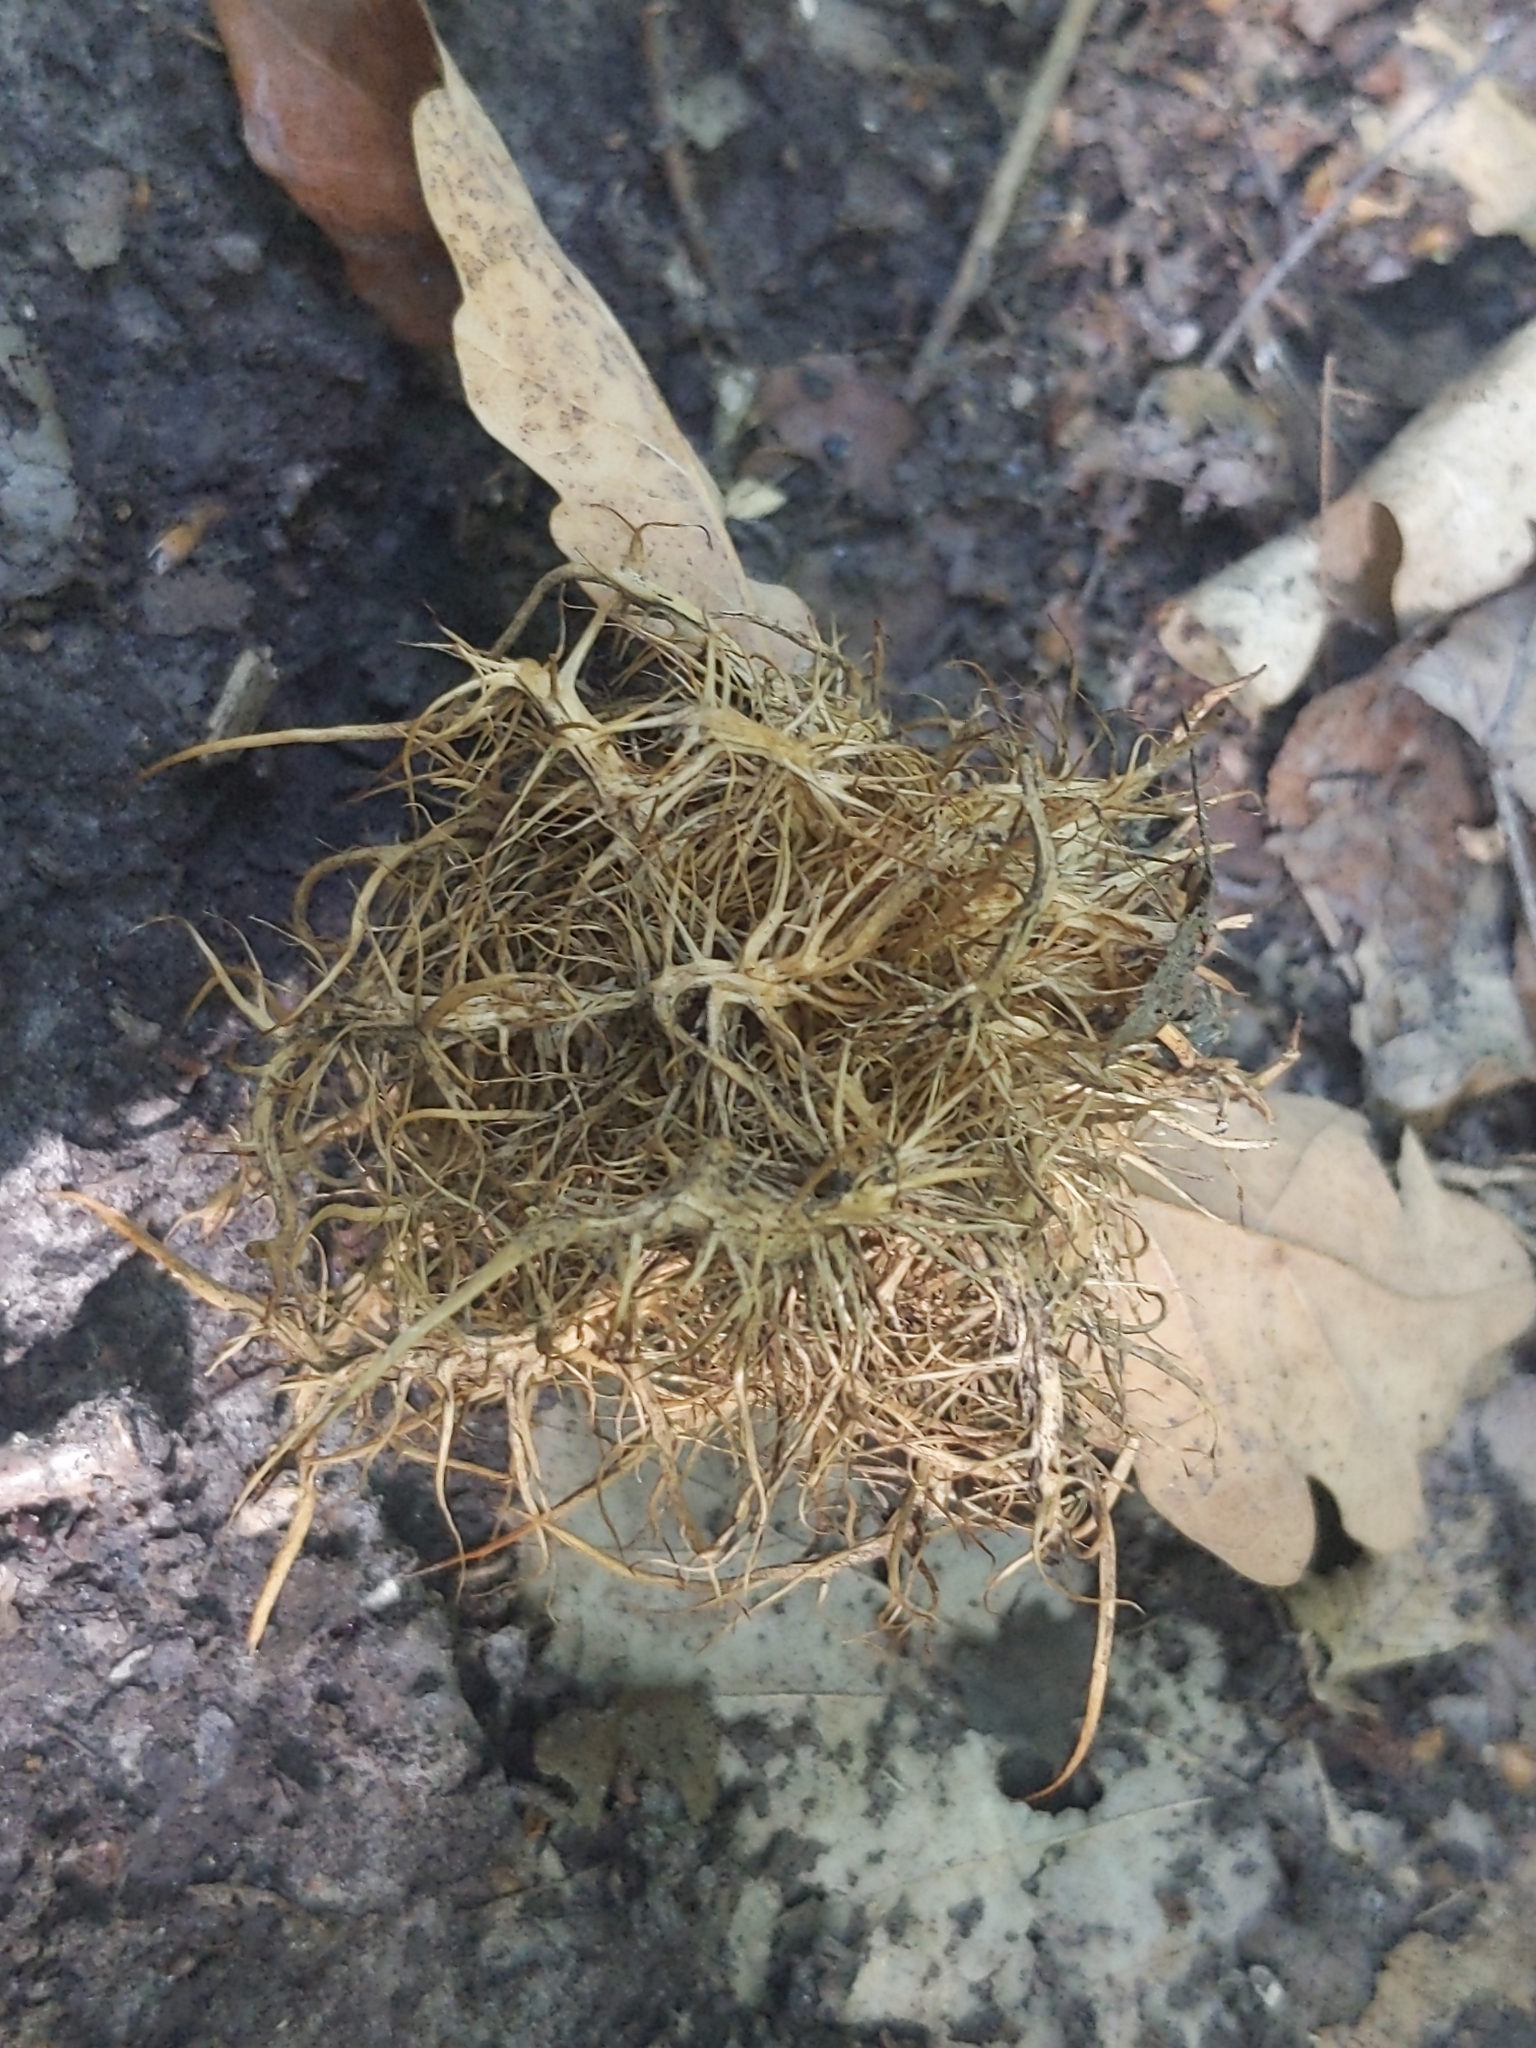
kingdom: Animalia
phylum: Arthropoda
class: Insecta
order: Hymenoptera
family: Cynipidae
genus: Andricus
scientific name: Andricus caputmedusae
